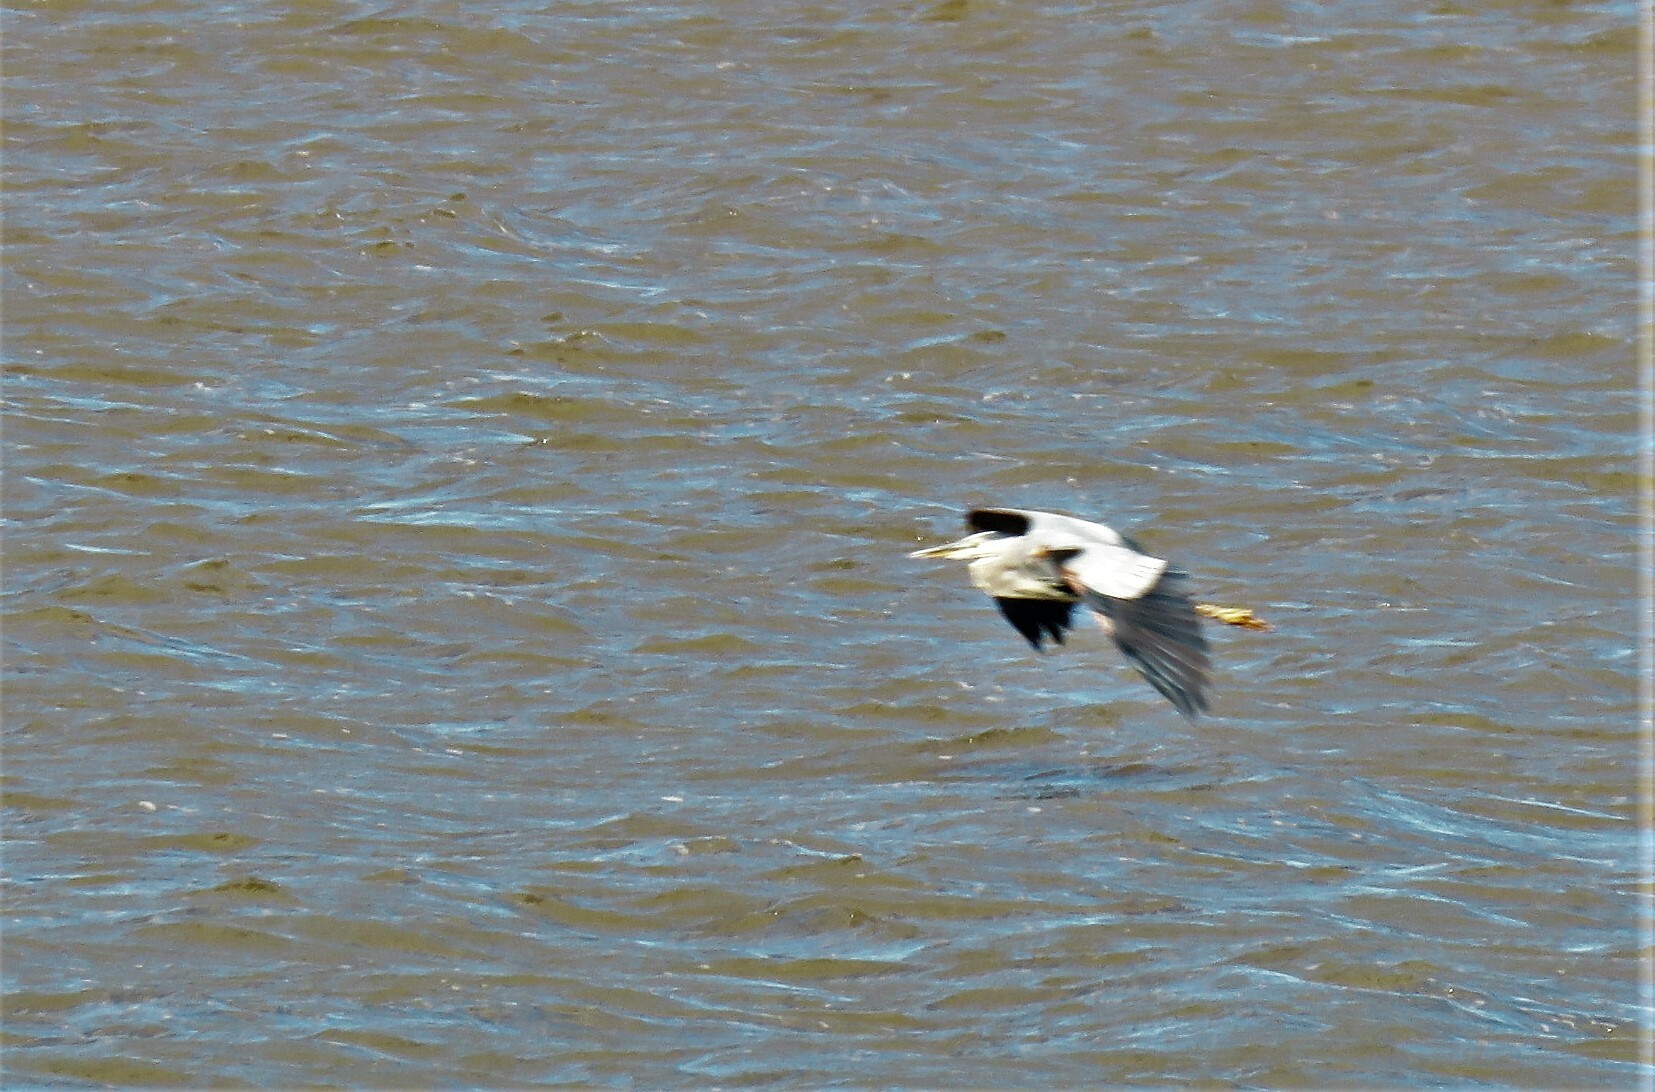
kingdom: Animalia
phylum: Chordata
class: Aves
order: Pelecaniformes
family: Ardeidae
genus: Ardea
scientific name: Ardea herodias
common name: Great blue heron
